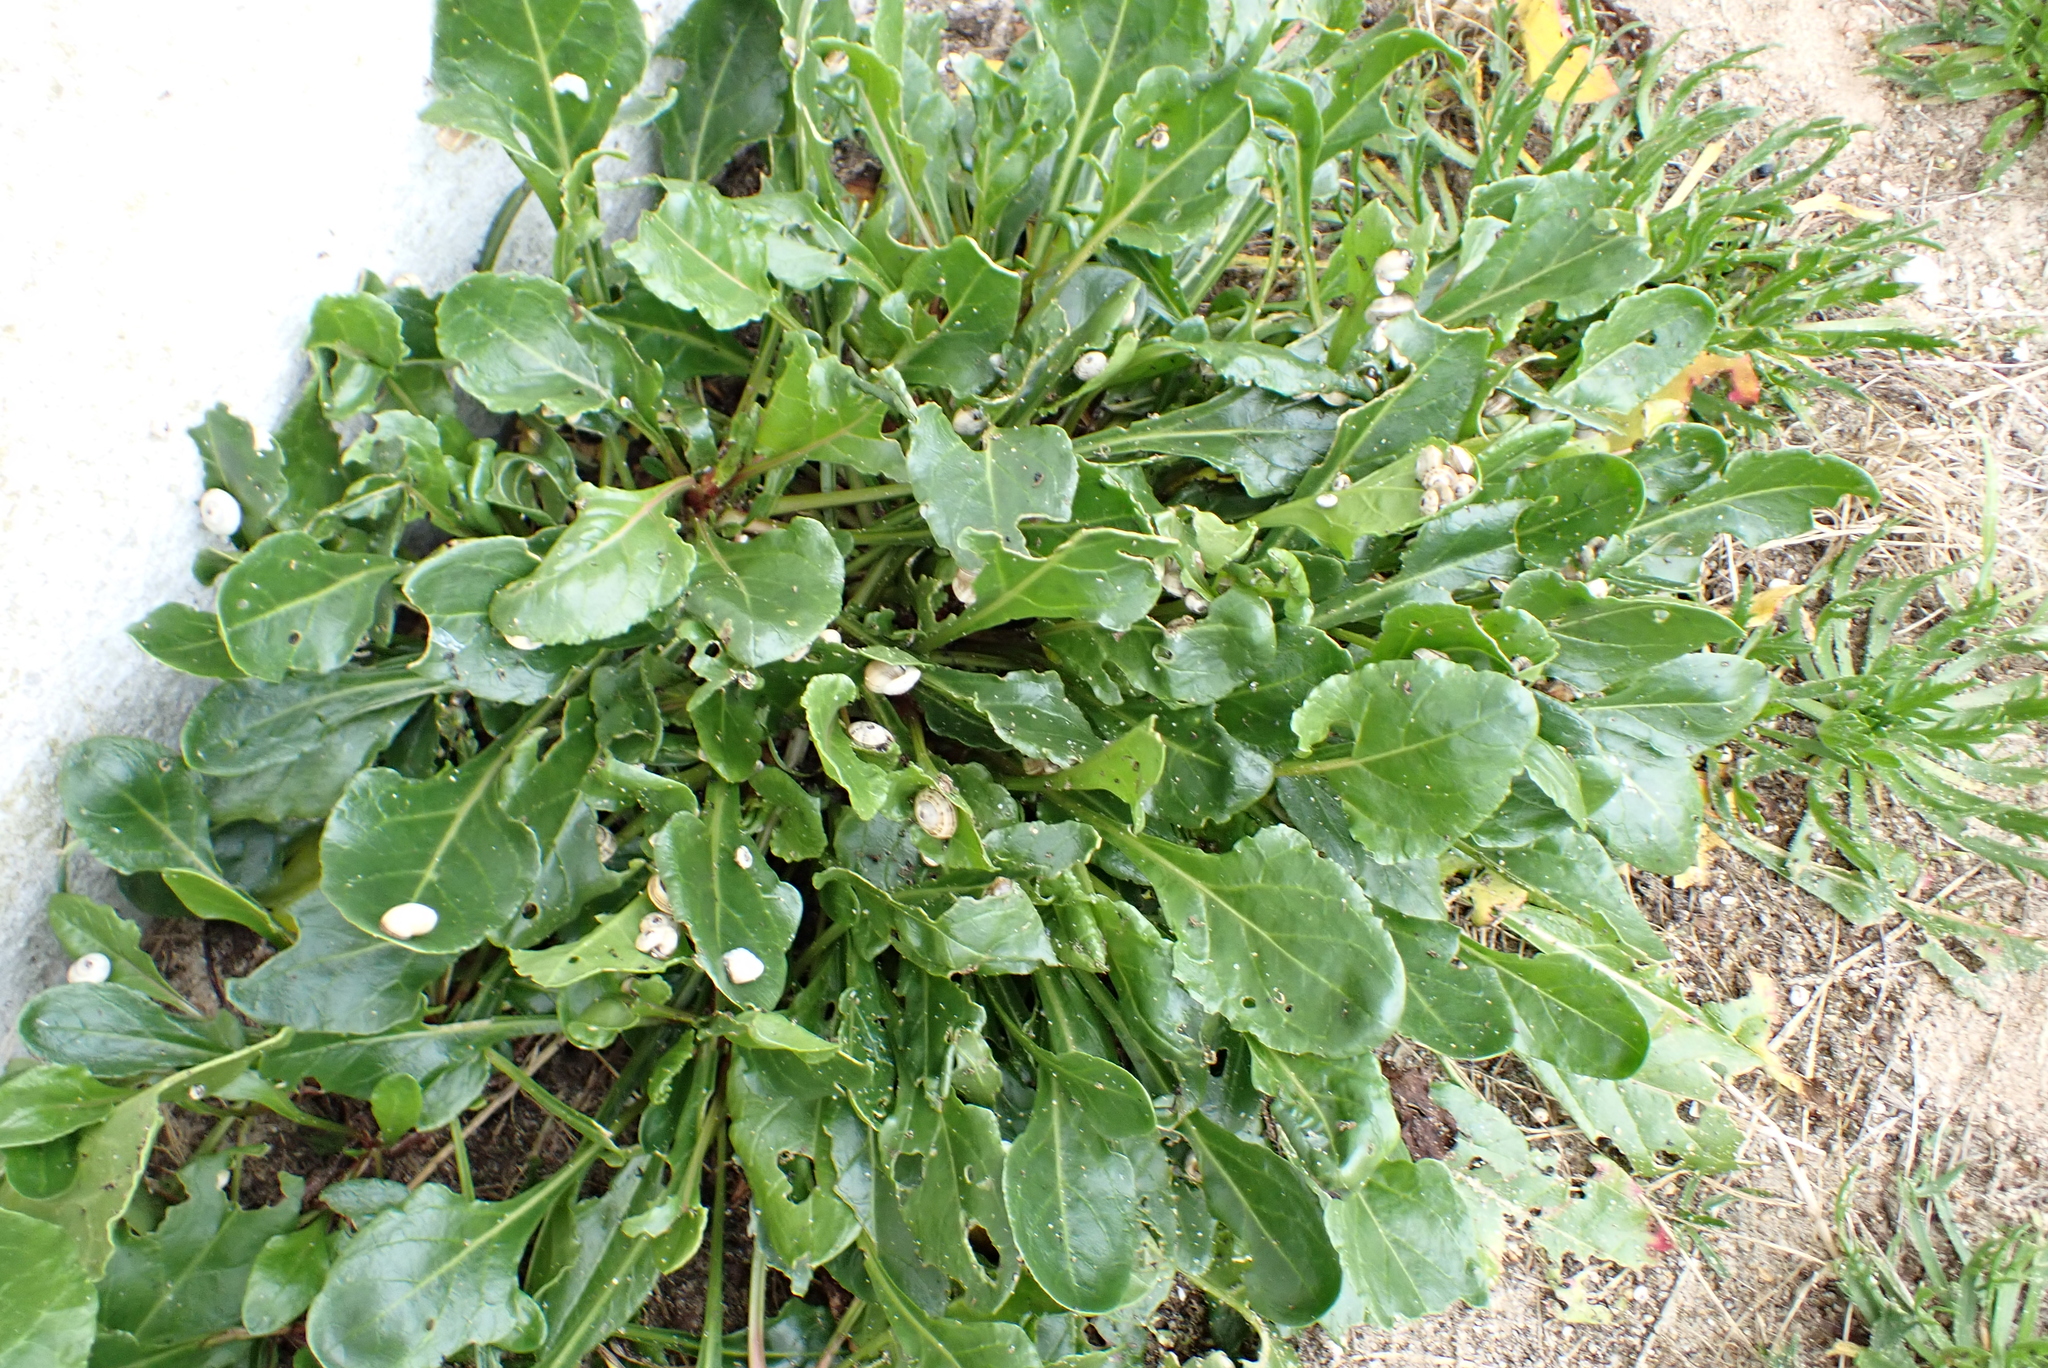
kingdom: Plantae
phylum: Tracheophyta
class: Magnoliopsida
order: Caryophyllales
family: Amaranthaceae
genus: Beta
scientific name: Beta vulgaris
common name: Beet
